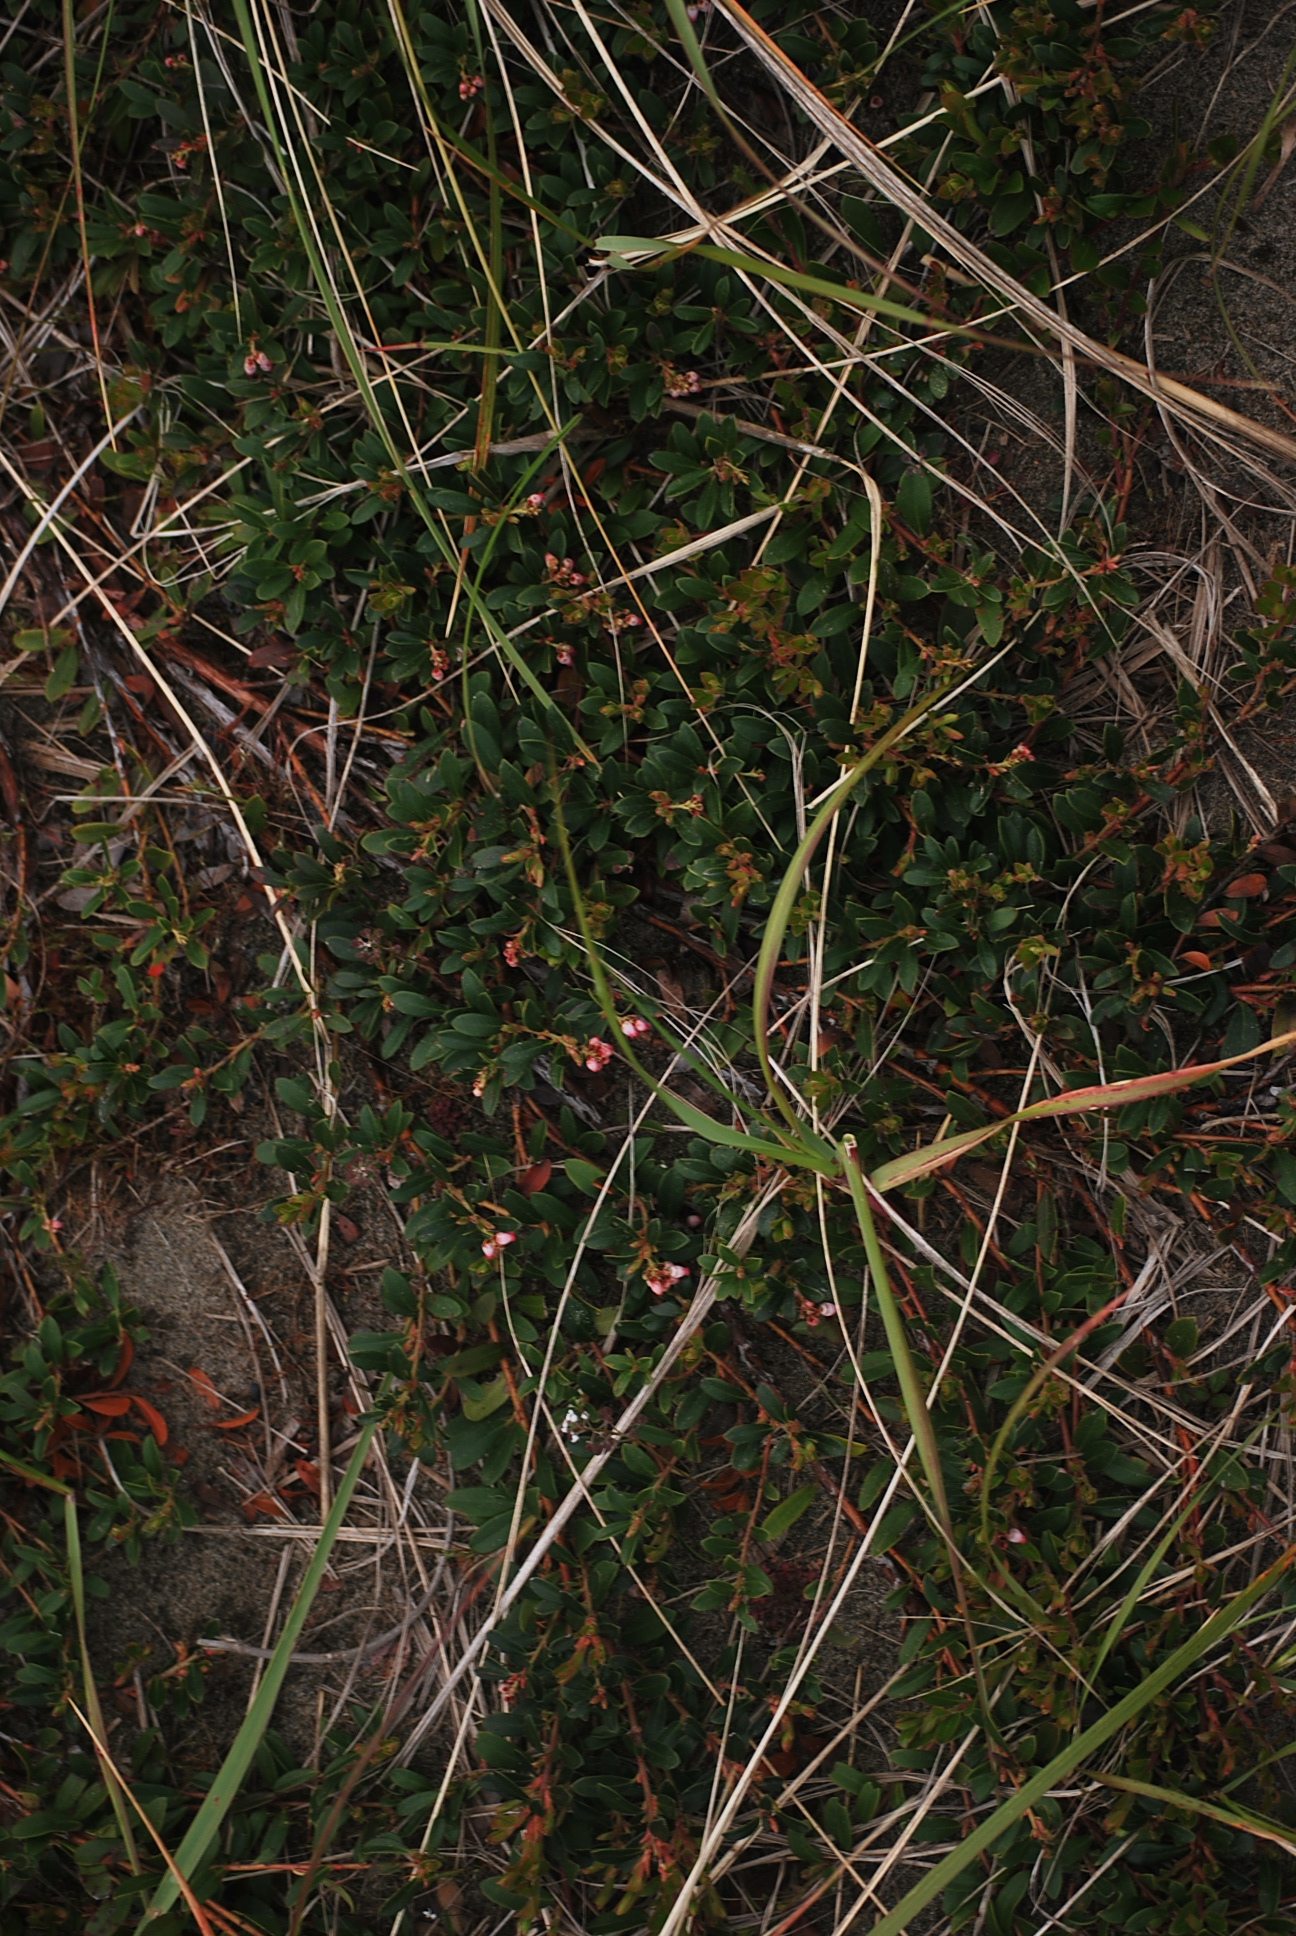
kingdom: Plantae
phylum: Tracheophyta
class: Magnoliopsida
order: Ericales
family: Ericaceae
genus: Arctostaphylos
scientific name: Arctostaphylos uva-ursi
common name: Bearberry
